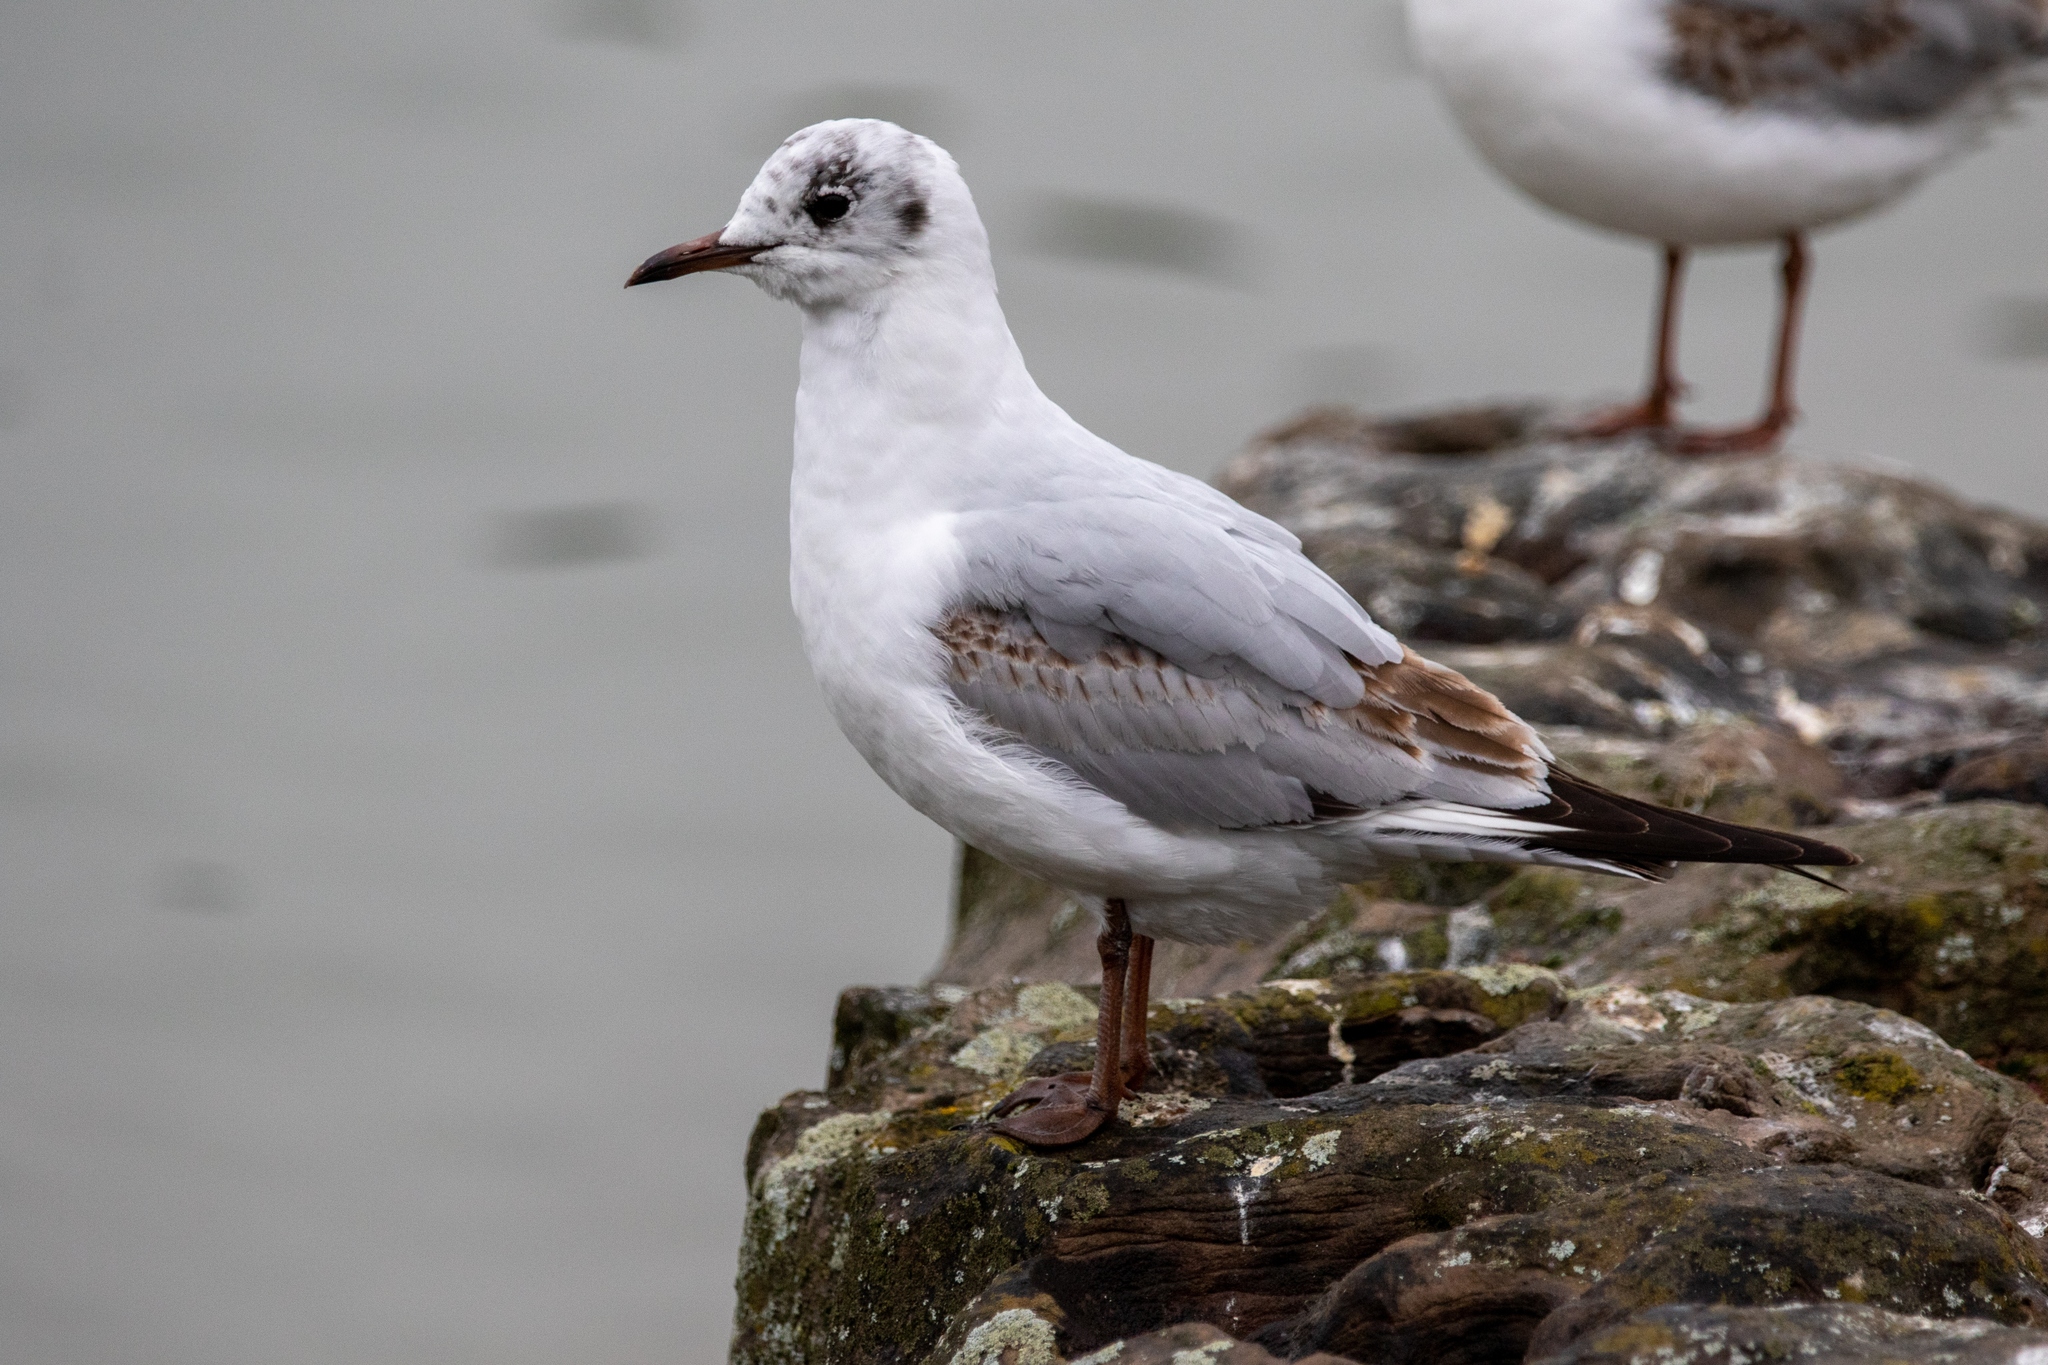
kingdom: Animalia
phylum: Chordata
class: Aves
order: Charadriiformes
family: Laridae
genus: Chroicocephalus
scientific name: Chroicocephalus ridibundus
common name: Black-headed gull
